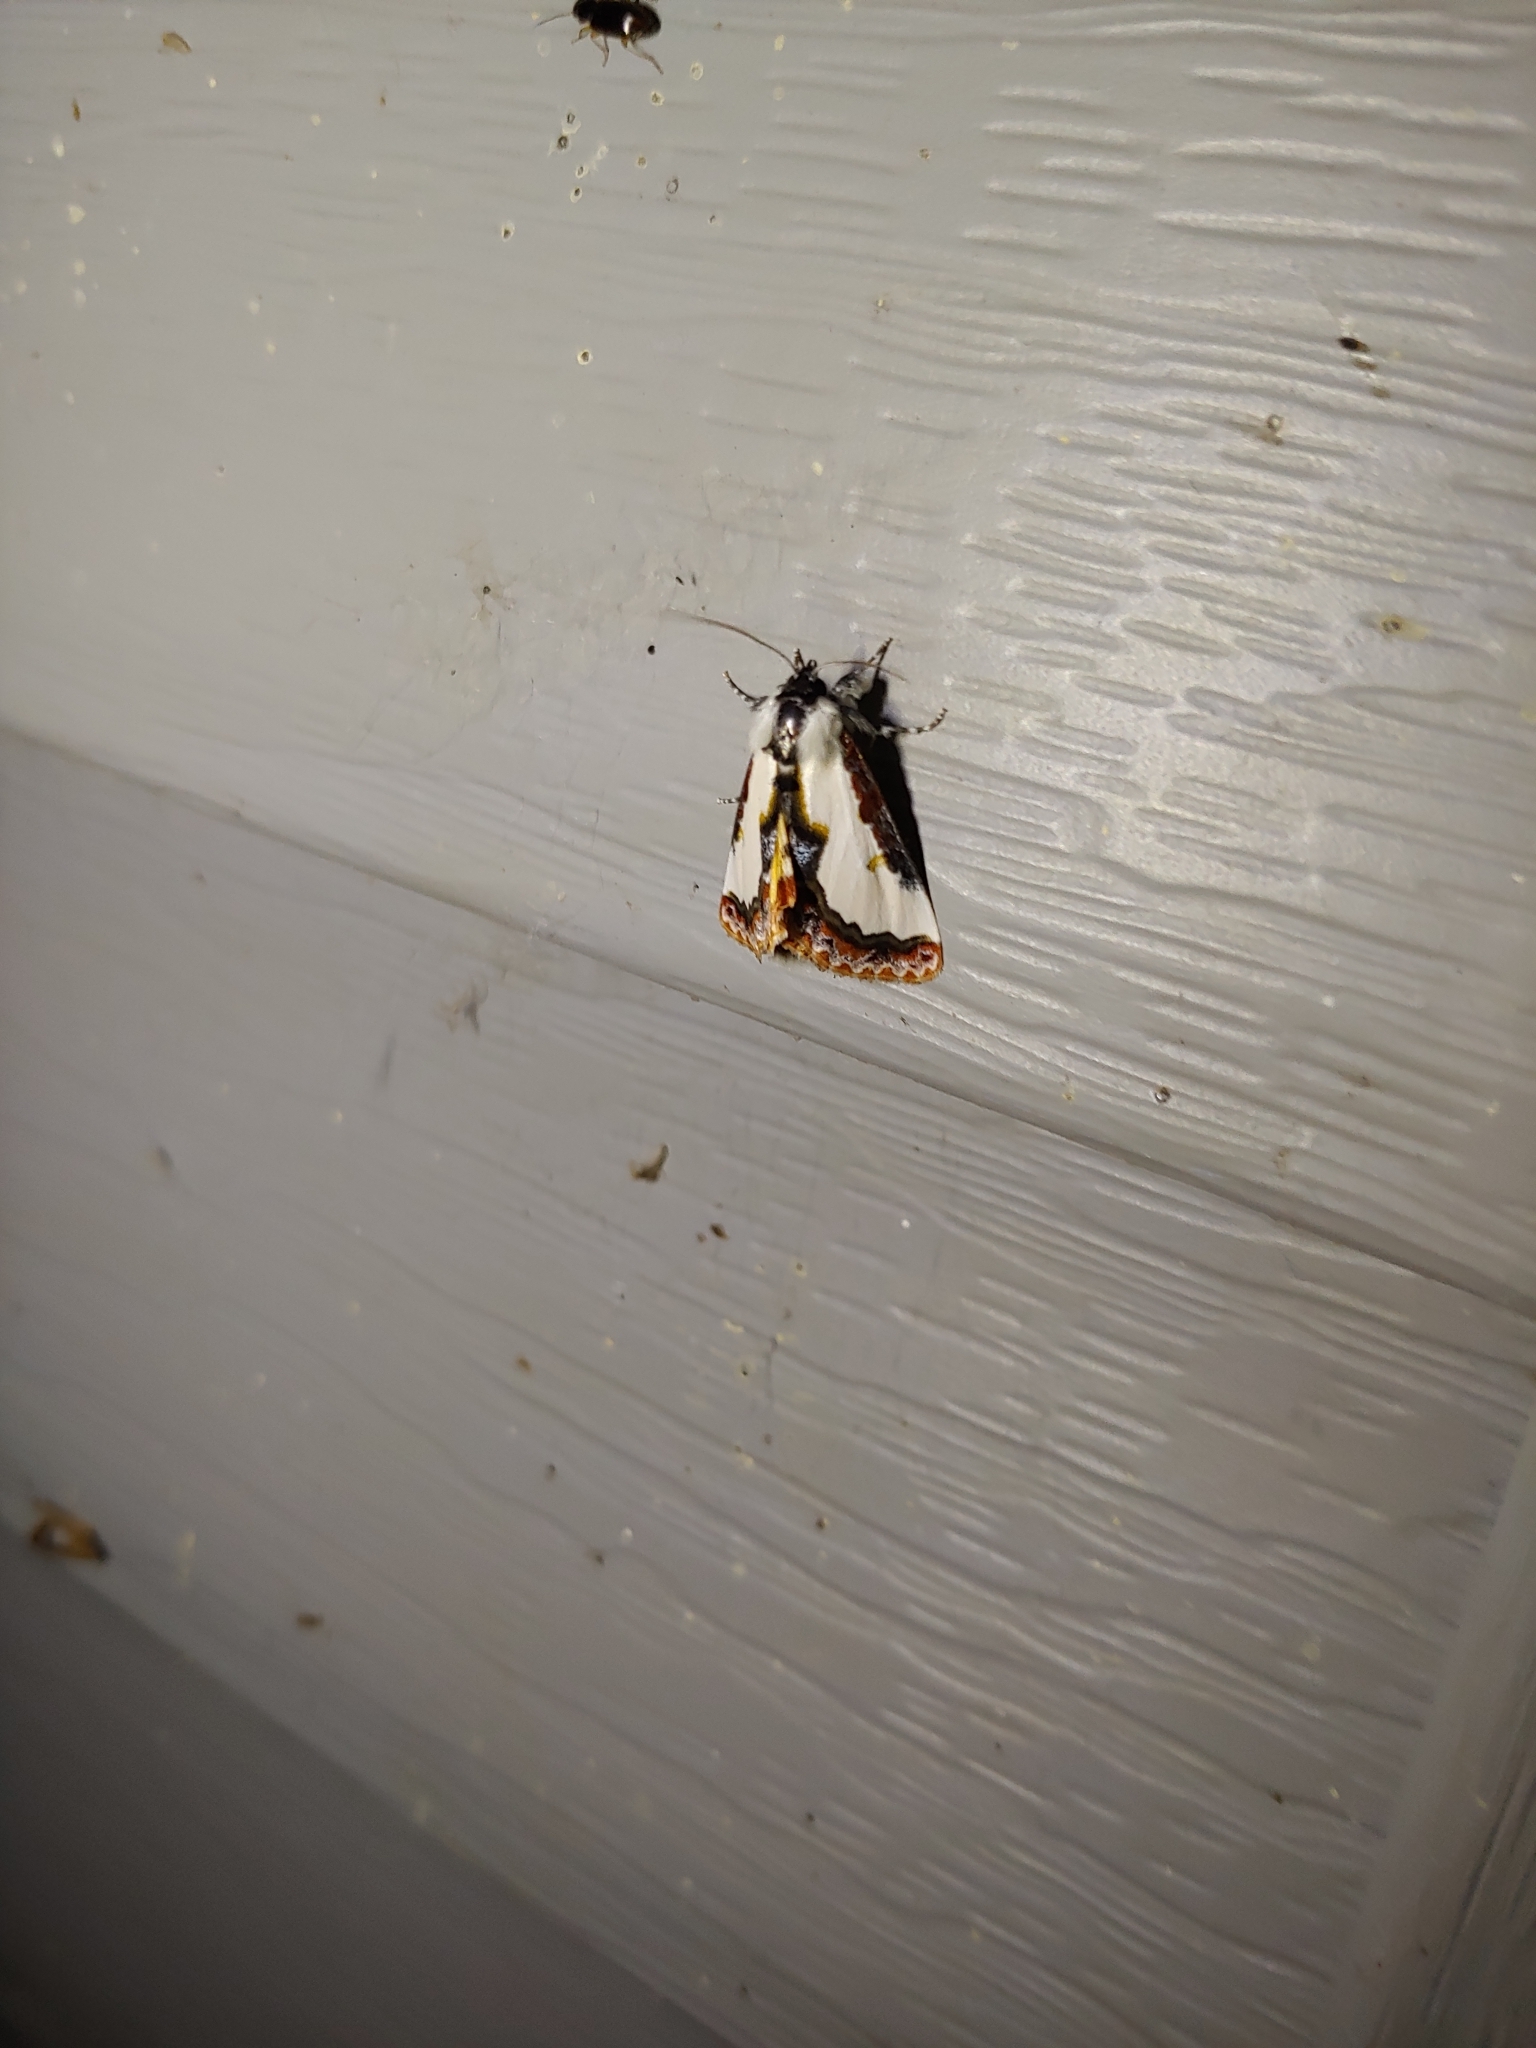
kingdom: Animalia
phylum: Arthropoda
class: Insecta
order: Lepidoptera
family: Noctuidae
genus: Eudryas
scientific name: Eudryas unio
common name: Pearly wood-nymph
